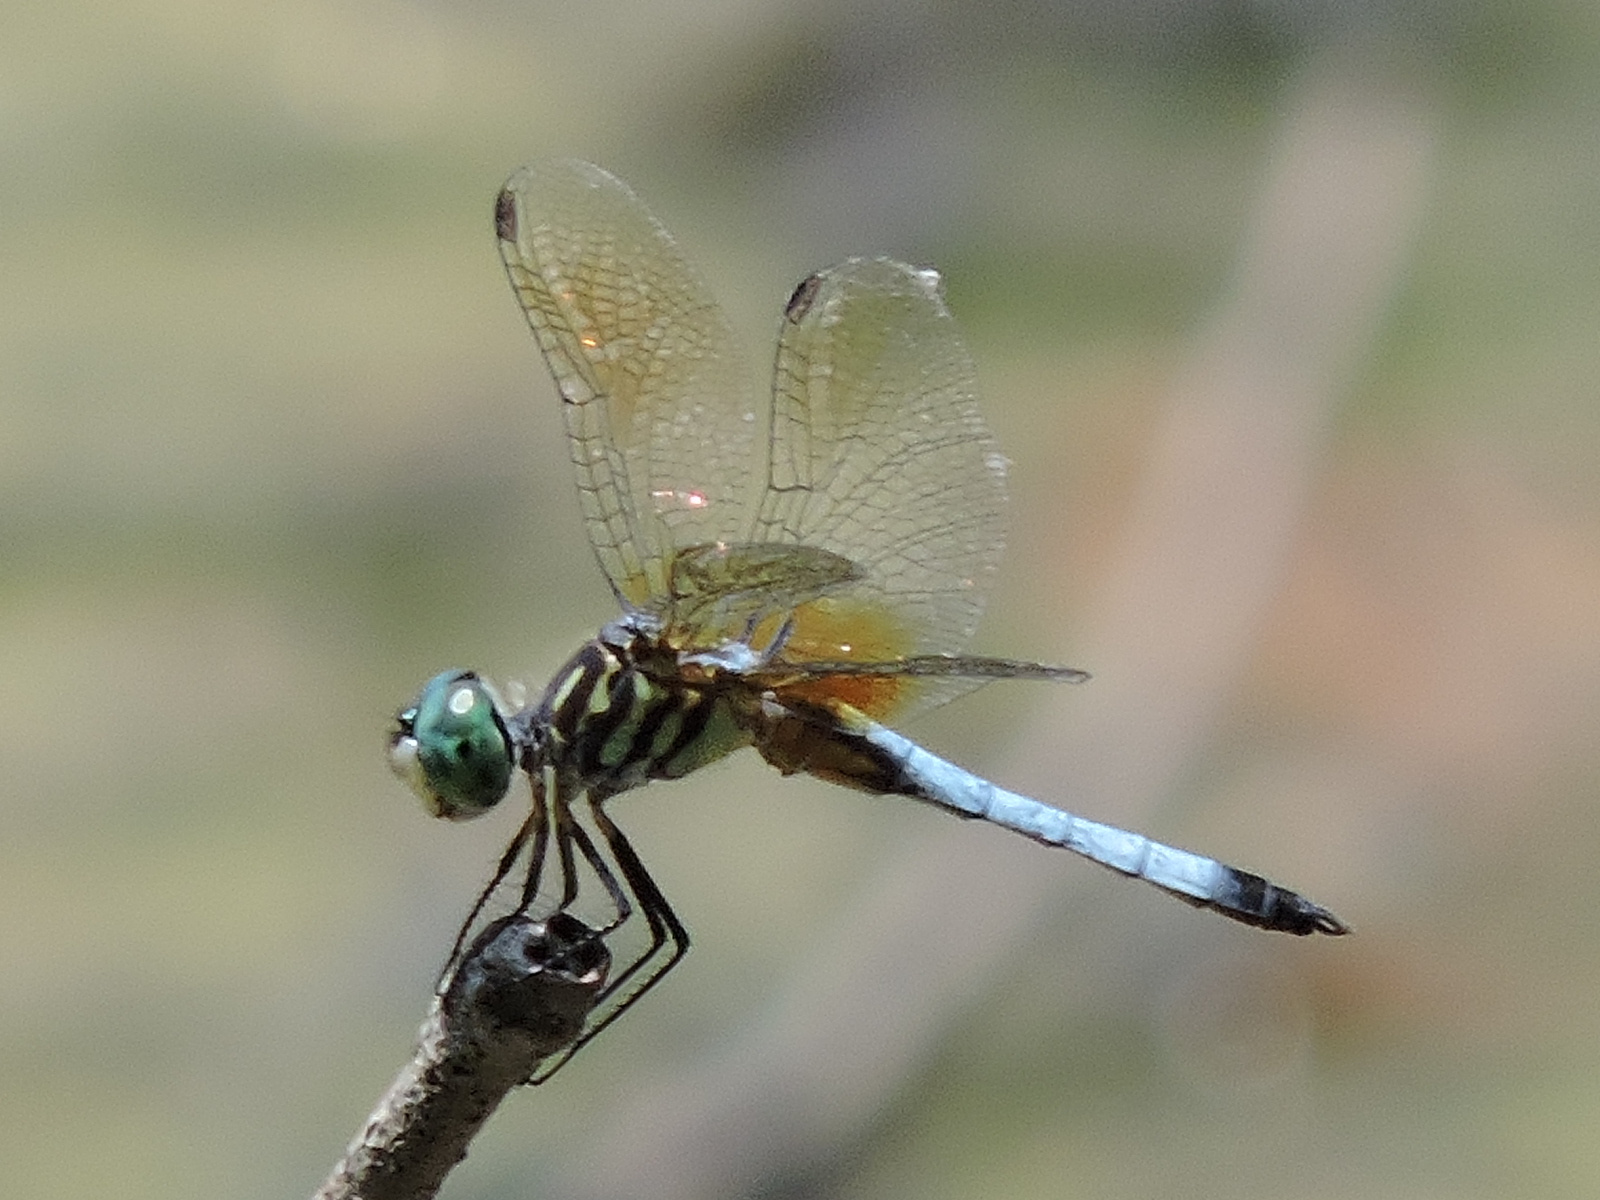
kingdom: Animalia
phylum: Arthropoda
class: Insecta
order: Odonata
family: Libellulidae
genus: Pachydiplax
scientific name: Pachydiplax longipennis
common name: Blue dasher
